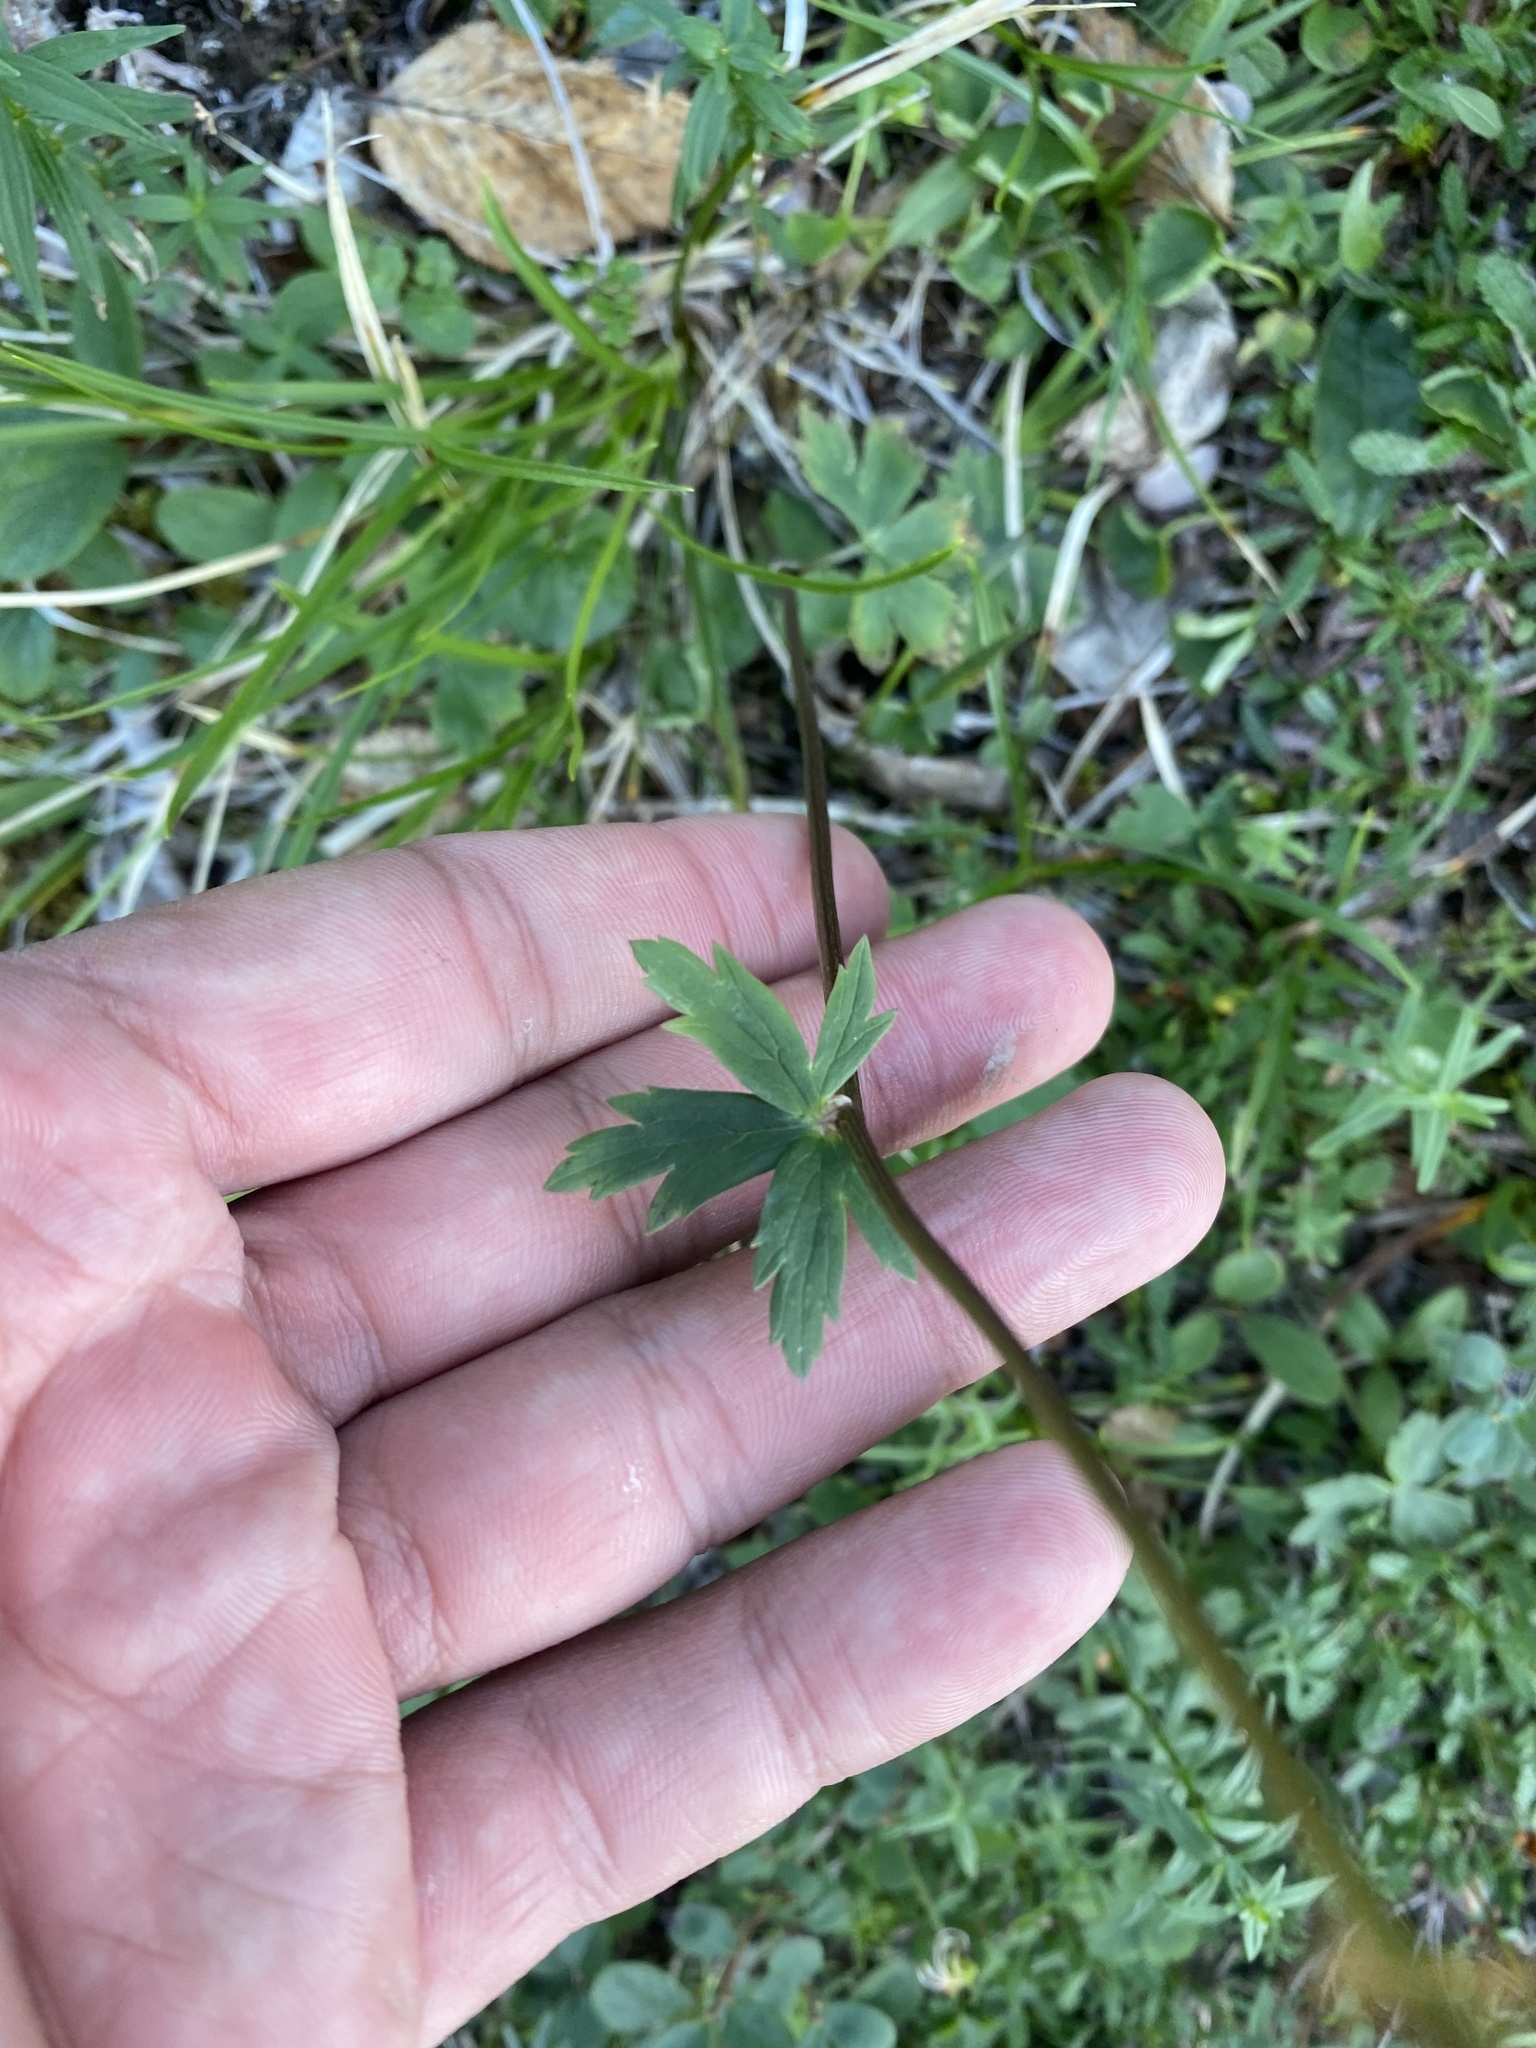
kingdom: Plantae
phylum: Tracheophyta
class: Magnoliopsida
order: Ranunculales
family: Ranunculaceae
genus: Trollius
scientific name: Trollius asiaticus
